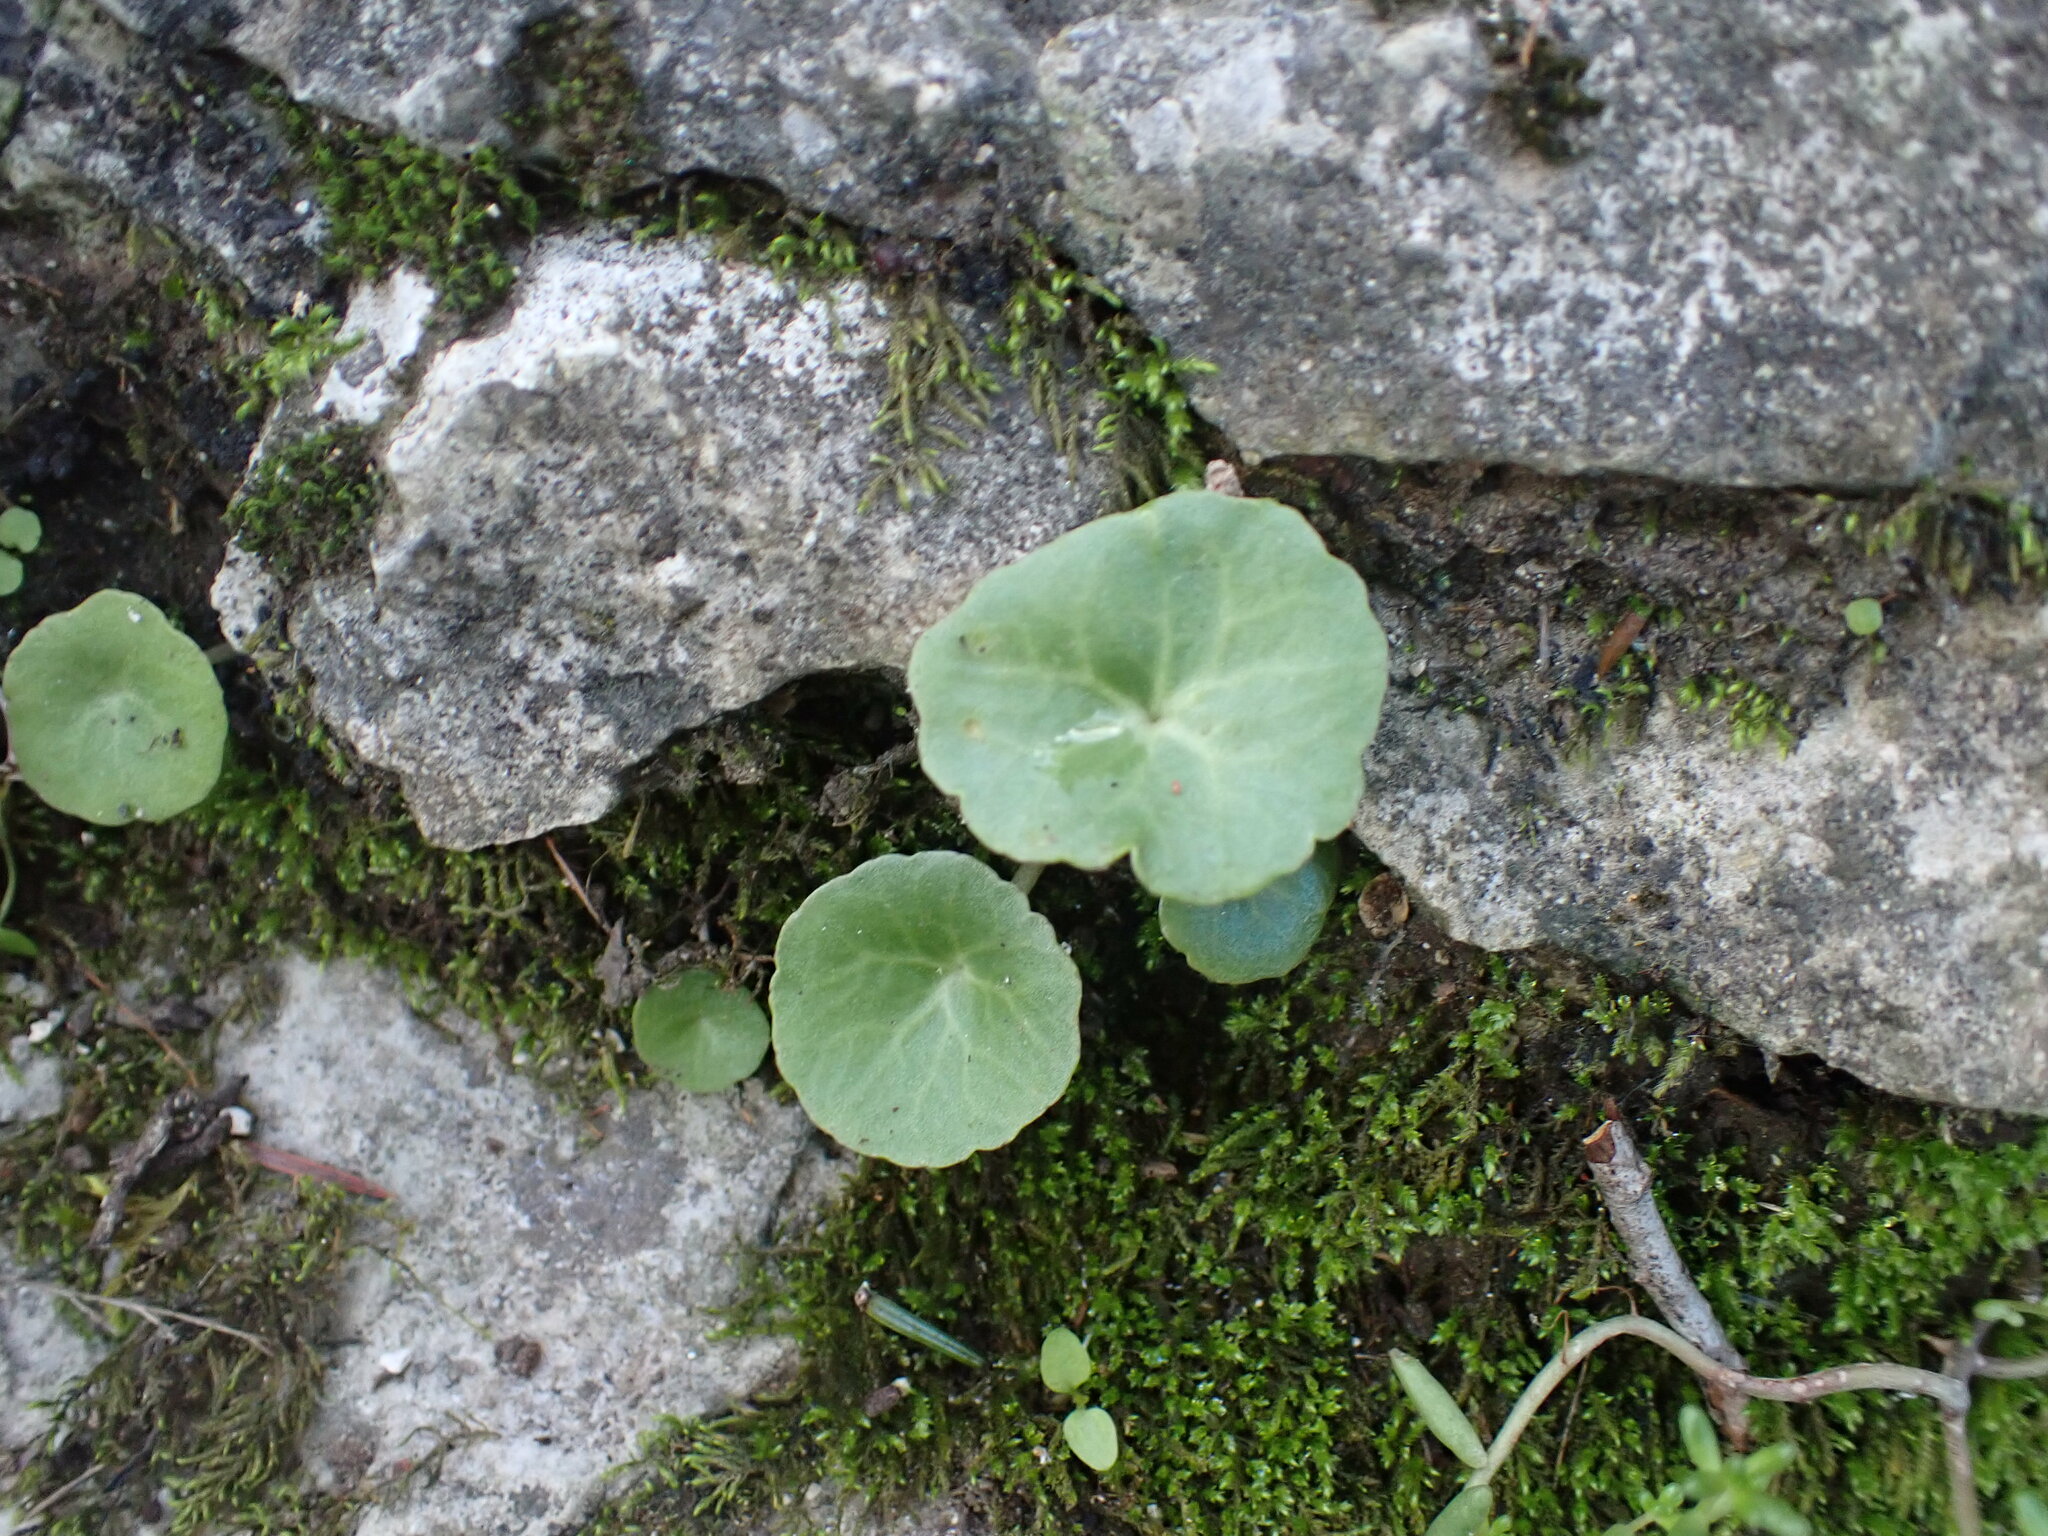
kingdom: Plantae
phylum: Tracheophyta
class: Magnoliopsida
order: Saxifragales
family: Crassulaceae
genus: Umbilicus
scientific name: Umbilicus rupestris
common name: Navelwort
